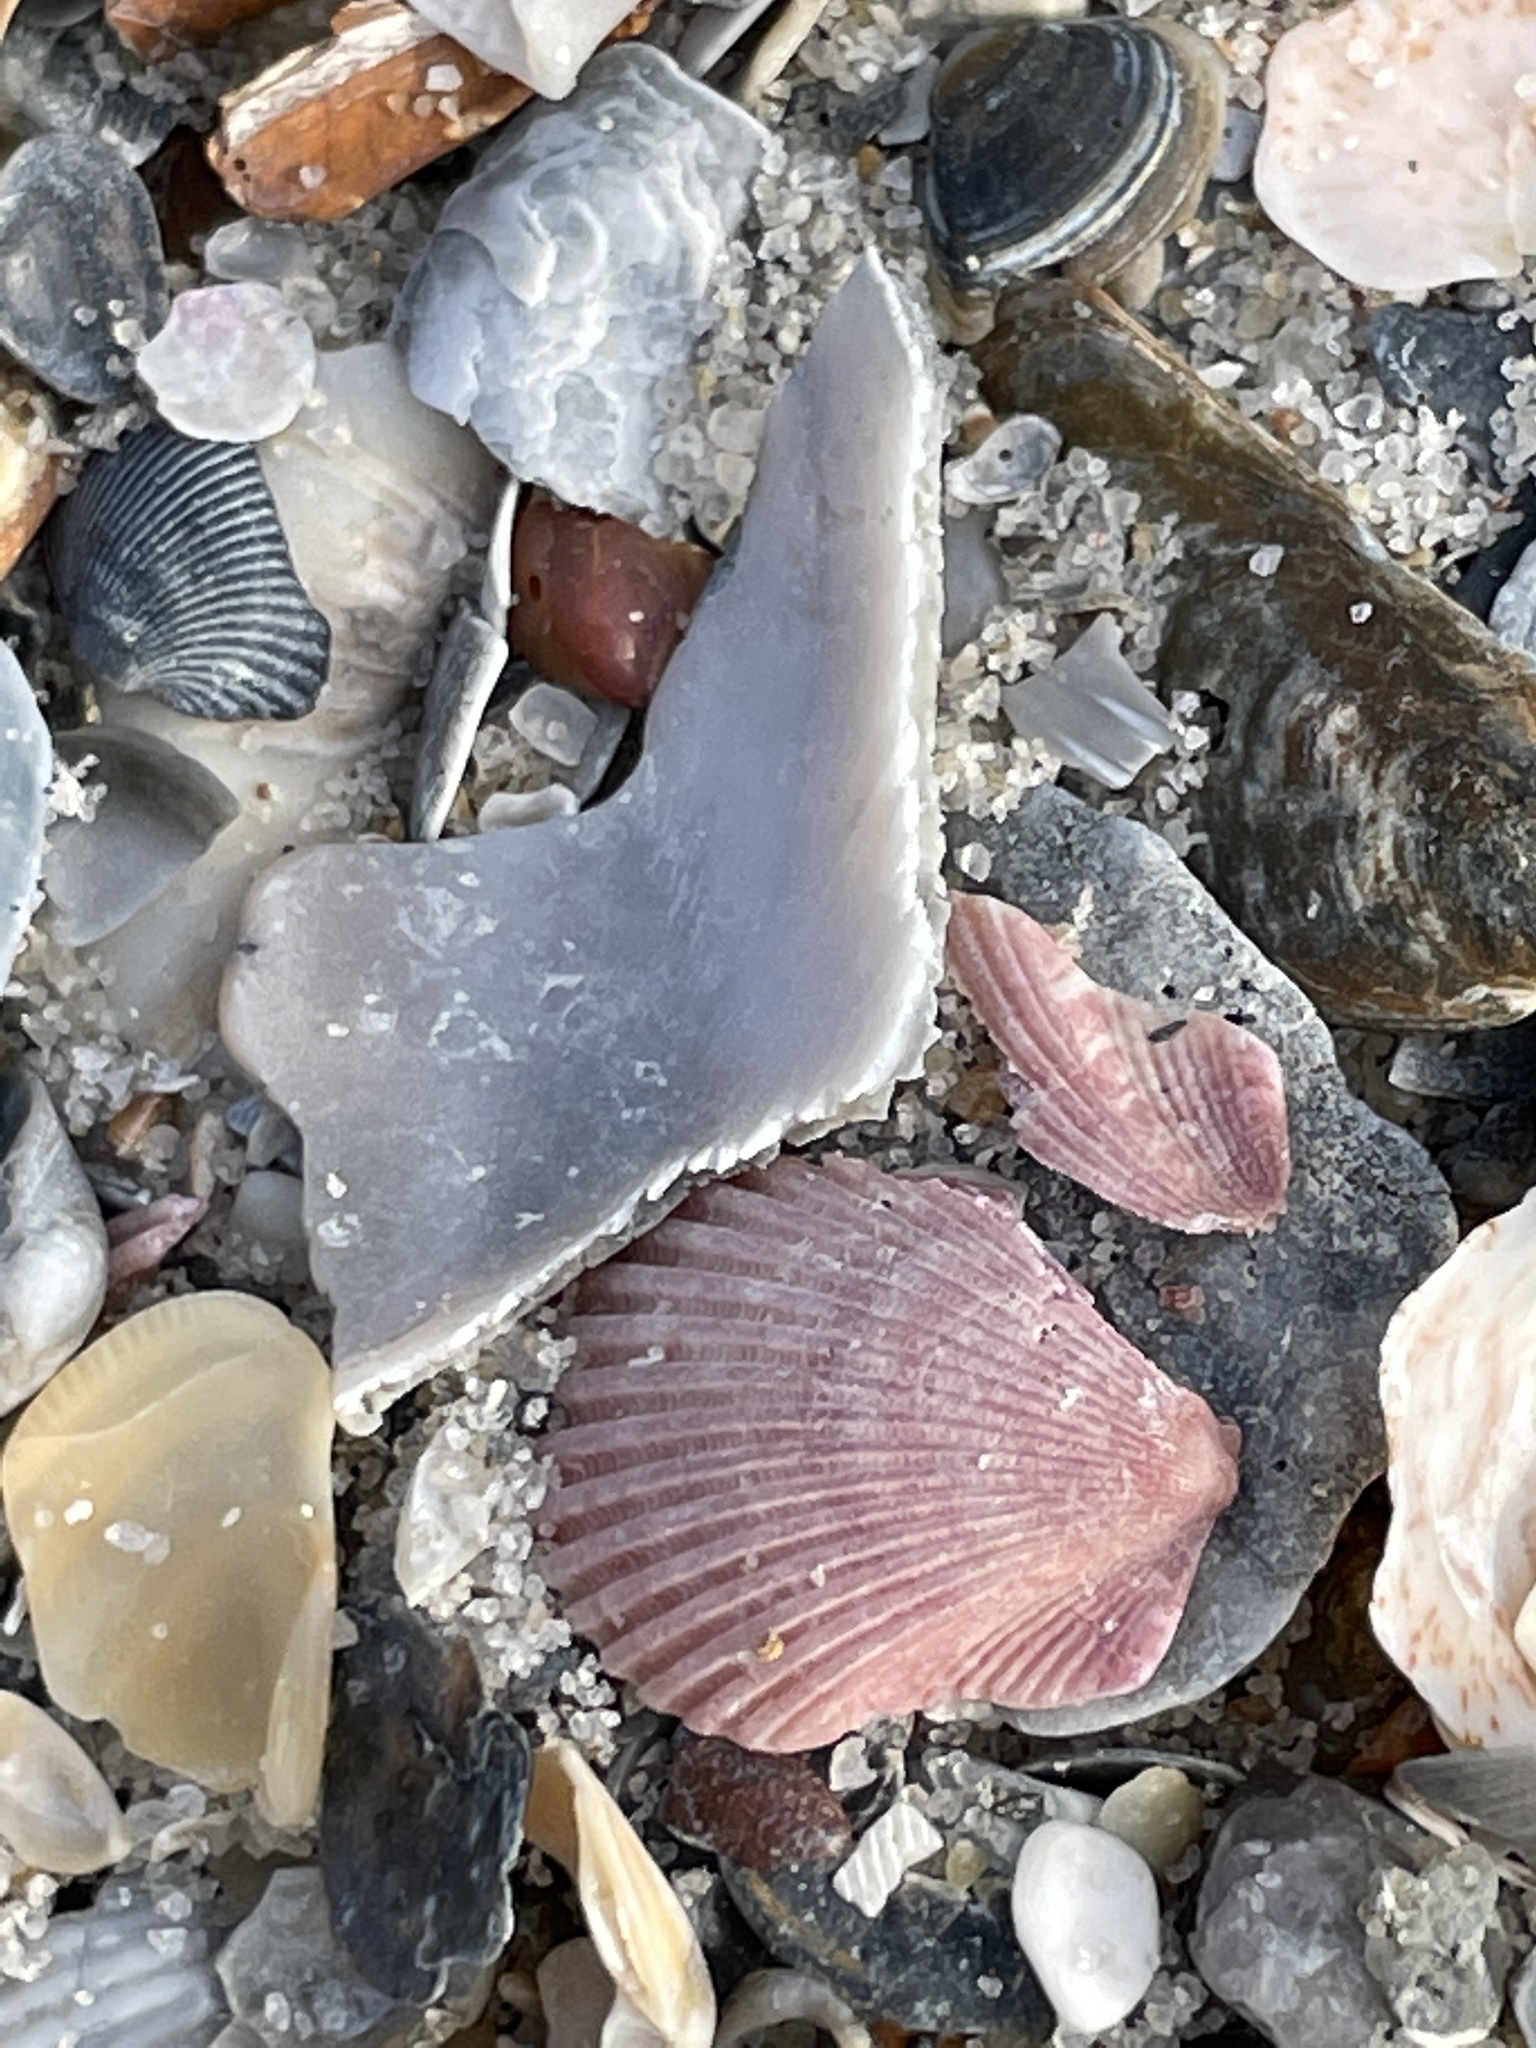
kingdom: Animalia
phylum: Mollusca
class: Bivalvia
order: Pectinida
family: Pectinidae
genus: Argopecten
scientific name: Argopecten gibbus
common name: Atlantic calico scallop
